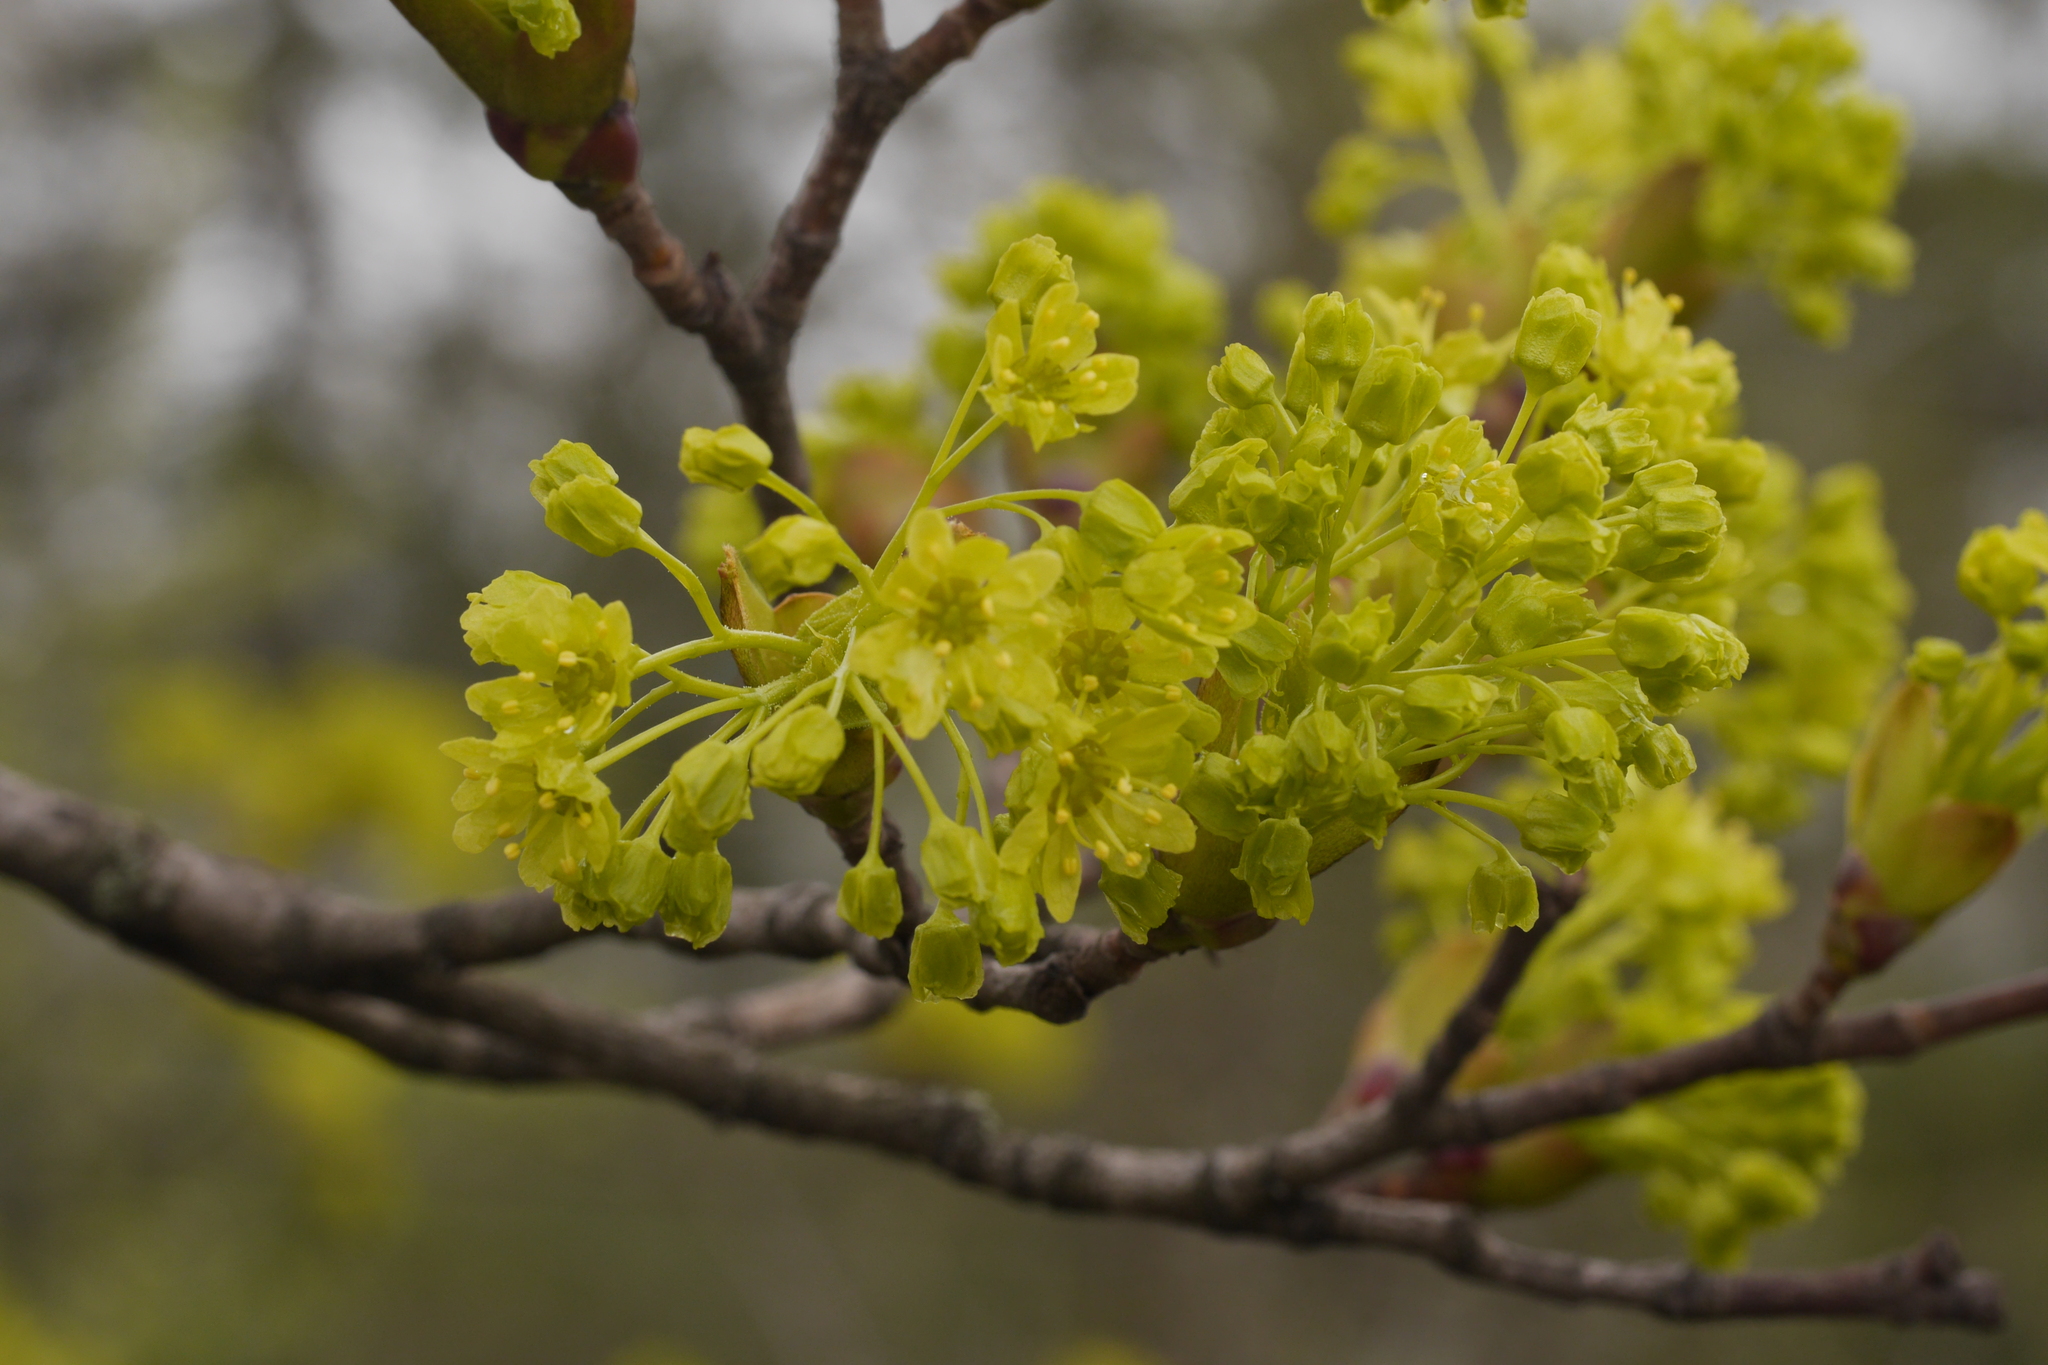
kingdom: Plantae
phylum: Tracheophyta
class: Magnoliopsida
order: Sapindales
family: Sapindaceae
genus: Acer
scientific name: Acer platanoides
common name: Norway maple
